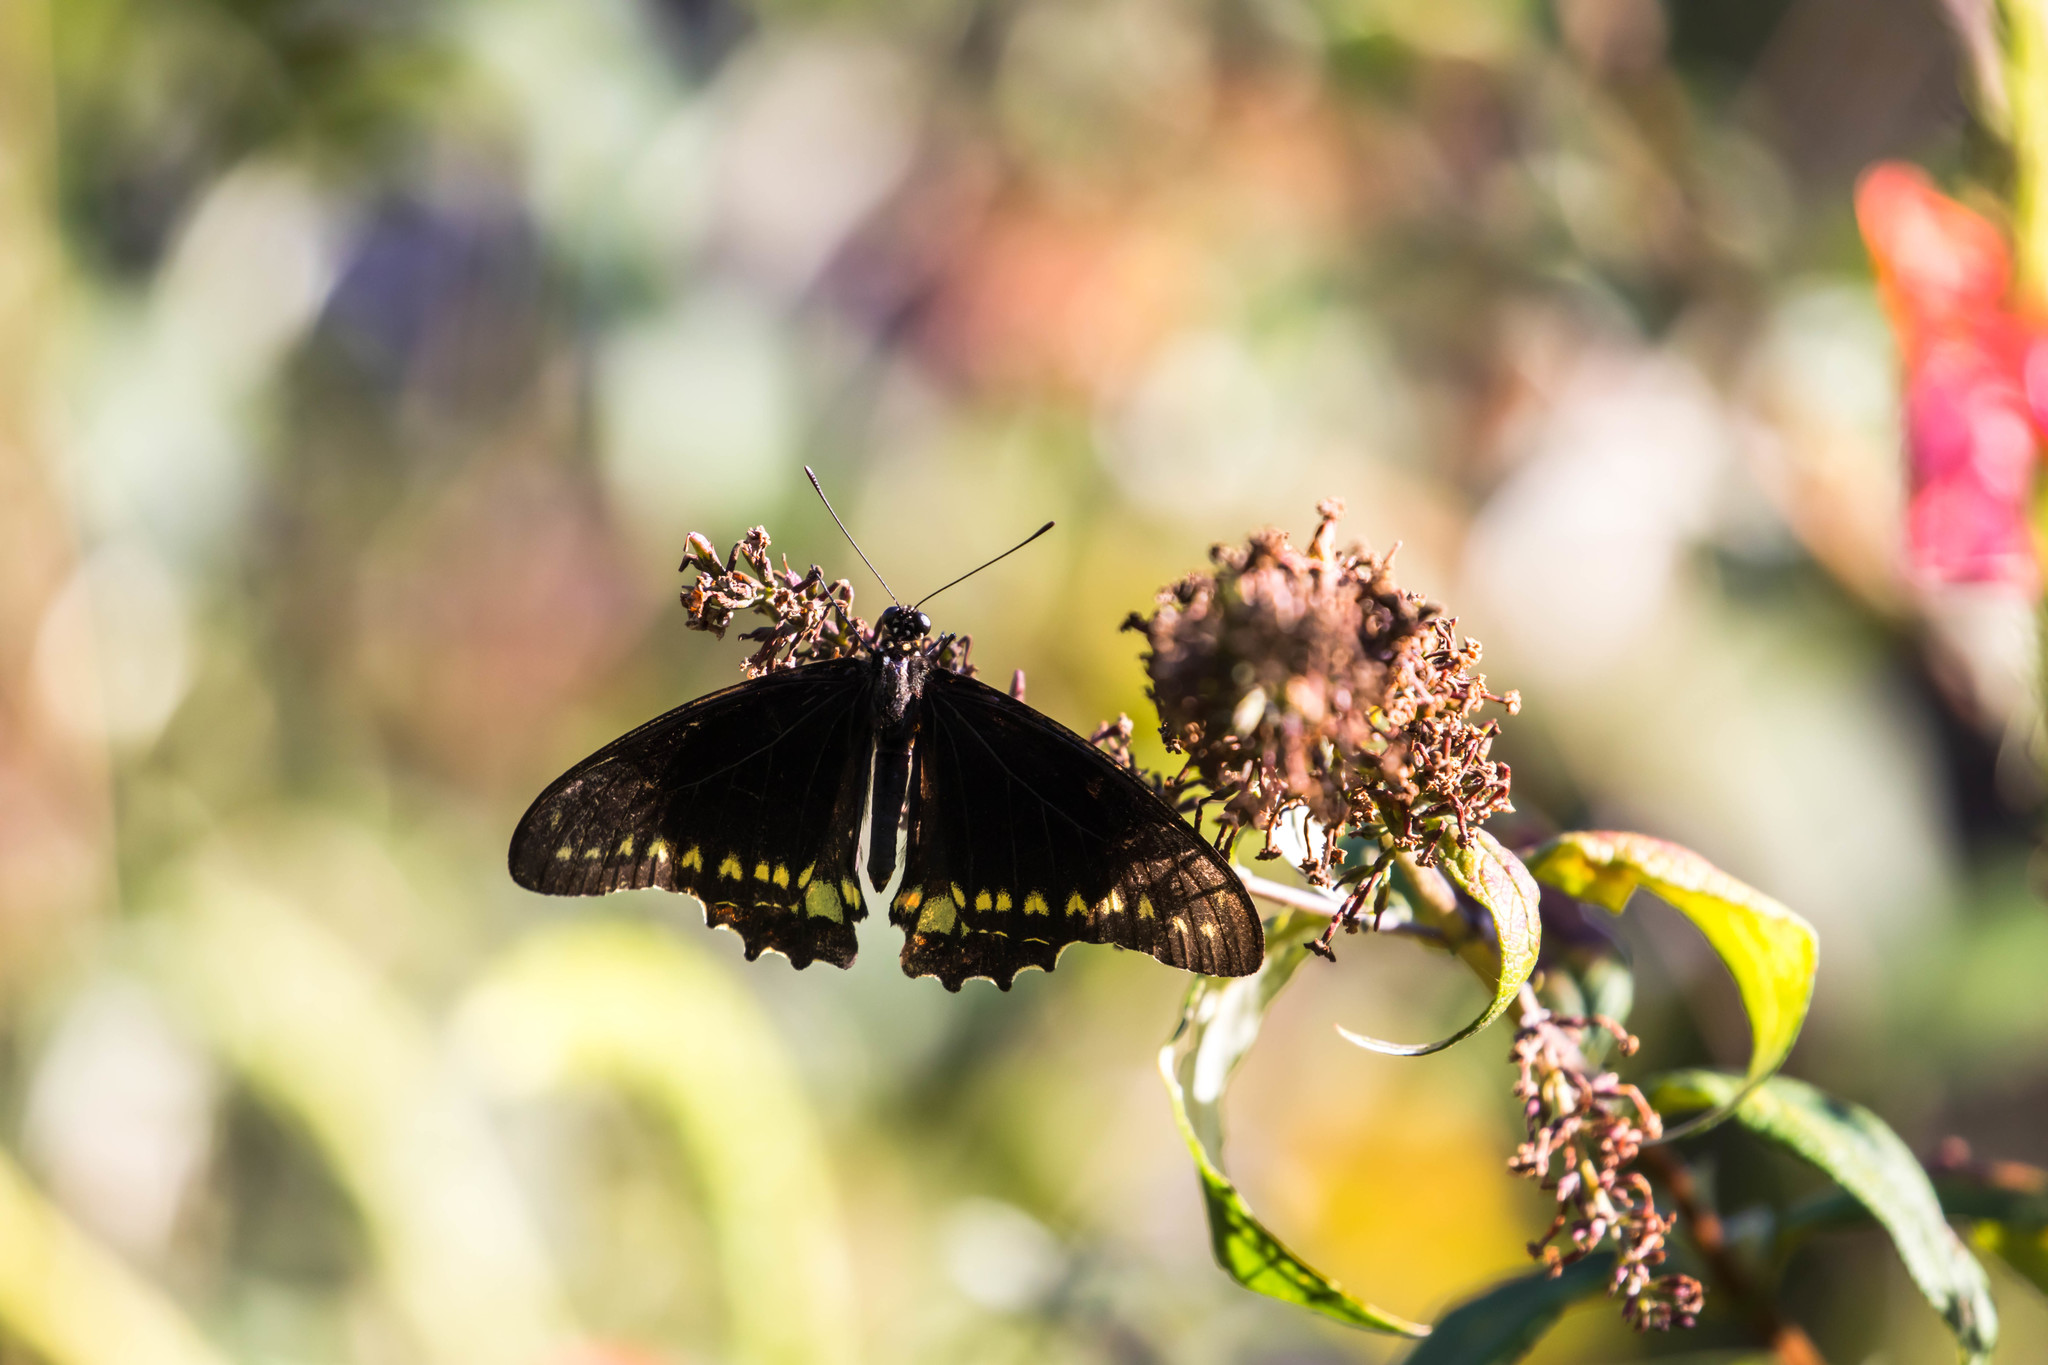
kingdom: Animalia
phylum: Arthropoda
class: Insecta
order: Lepidoptera
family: Papilionidae
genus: Battus
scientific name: Battus polydamas
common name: Polydamas swallowtail
